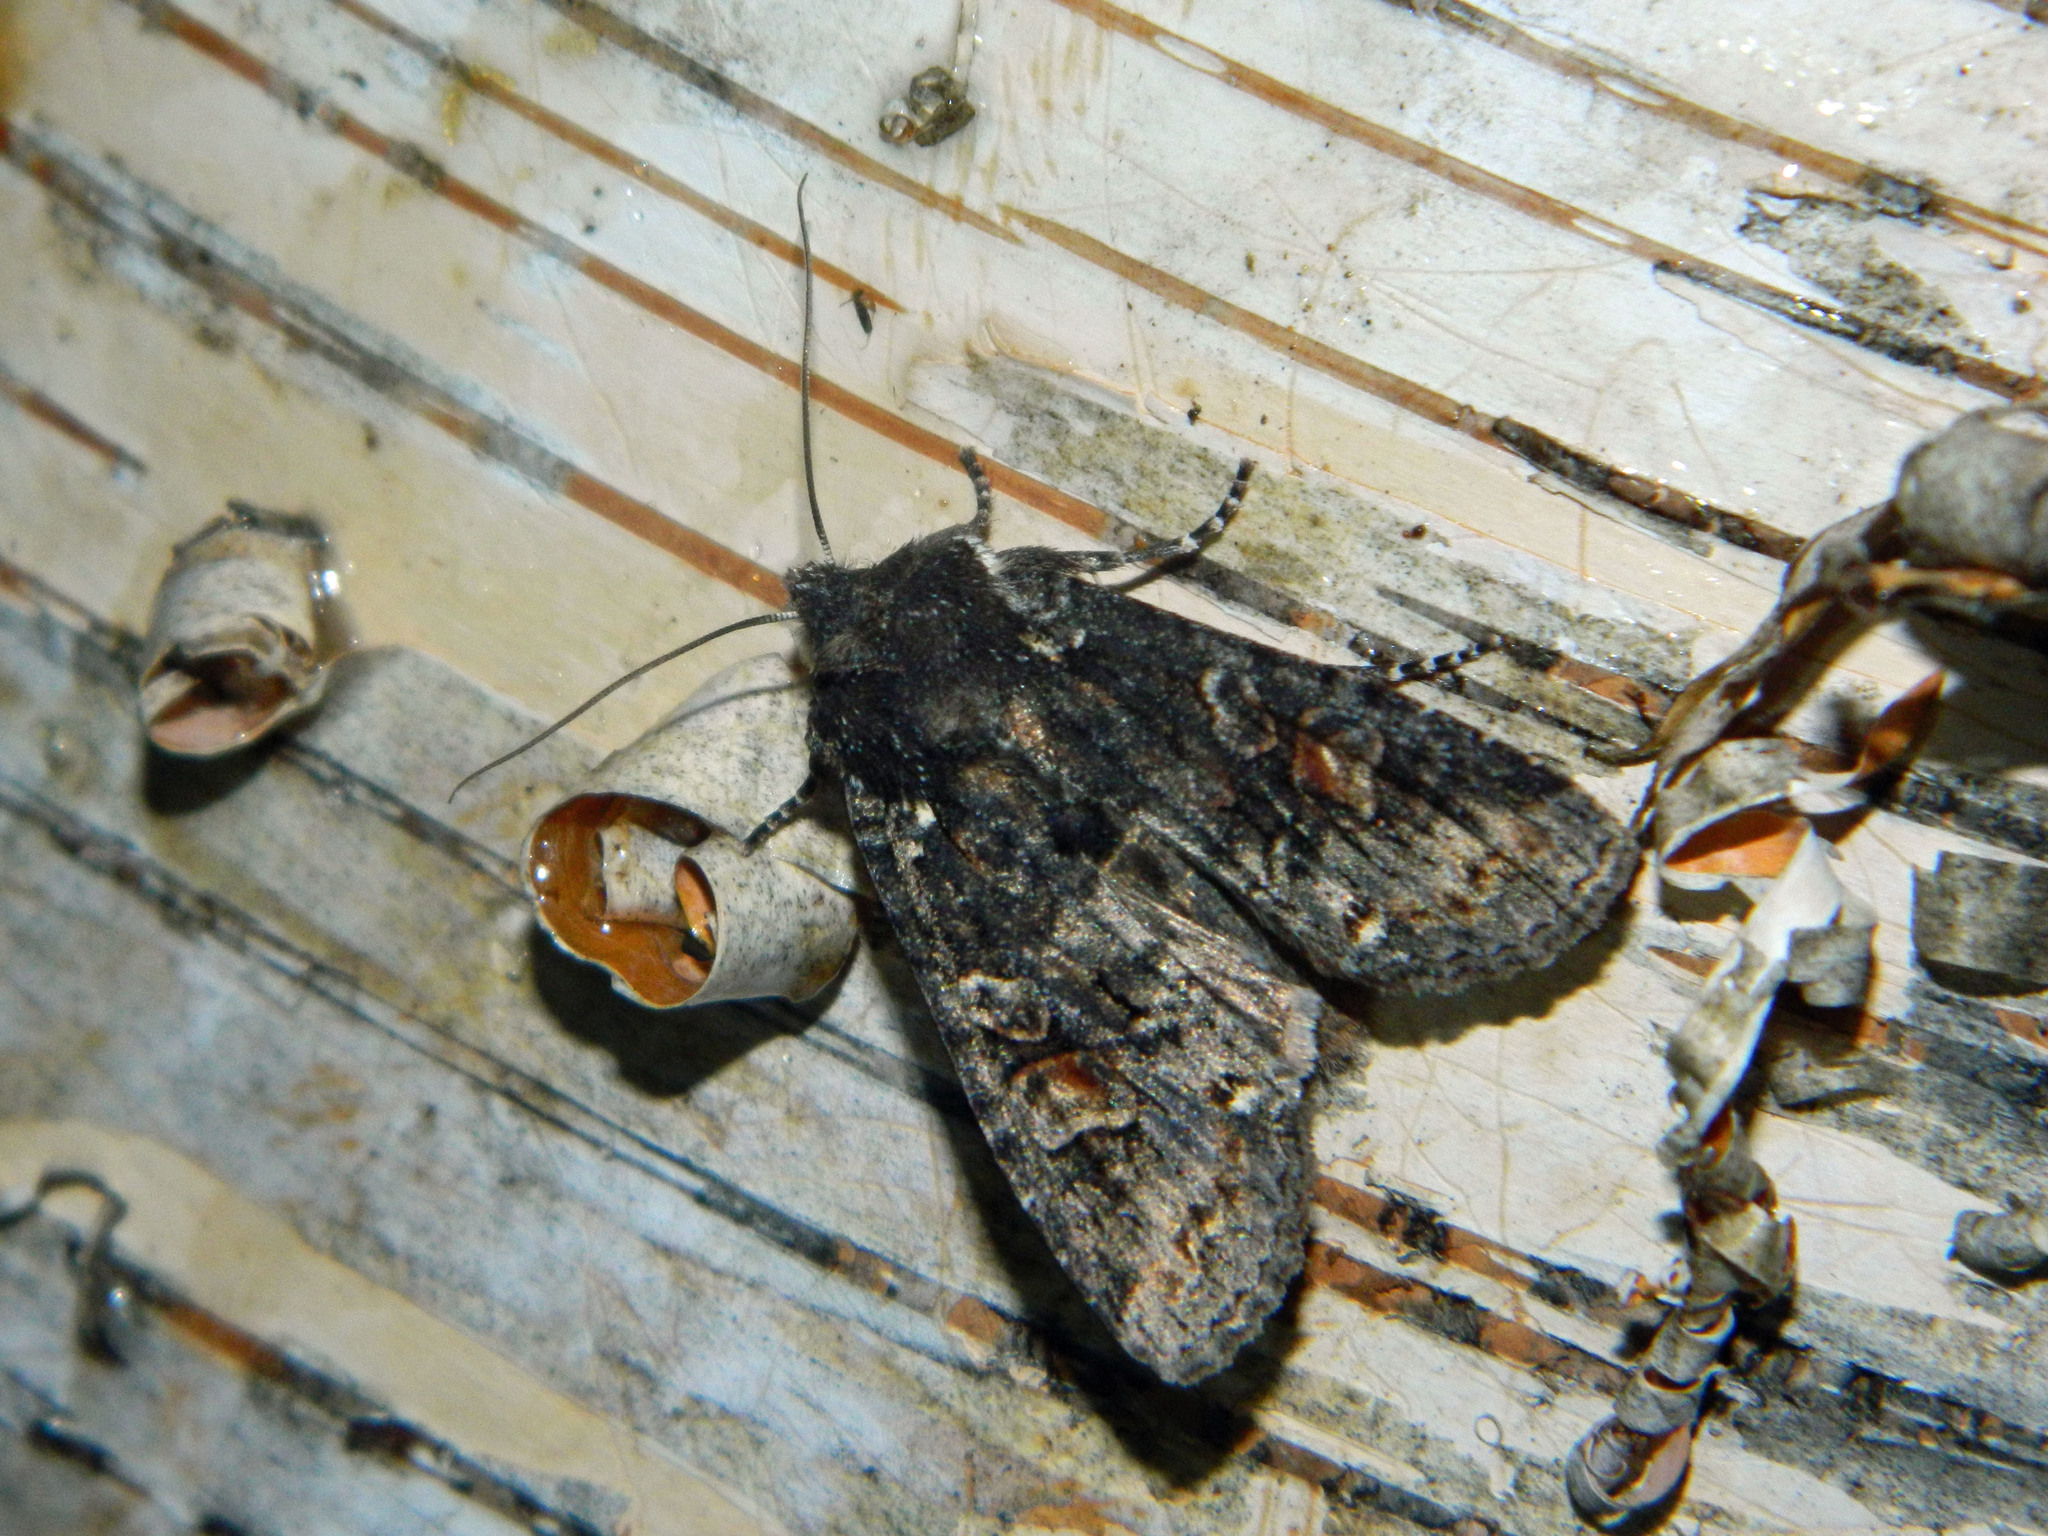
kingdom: Animalia
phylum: Arthropoda
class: Insecta
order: Lepidoptera
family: Noctuidae
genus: Lithophane
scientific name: Lithophane pexata
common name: Plush-naped pinion moth
